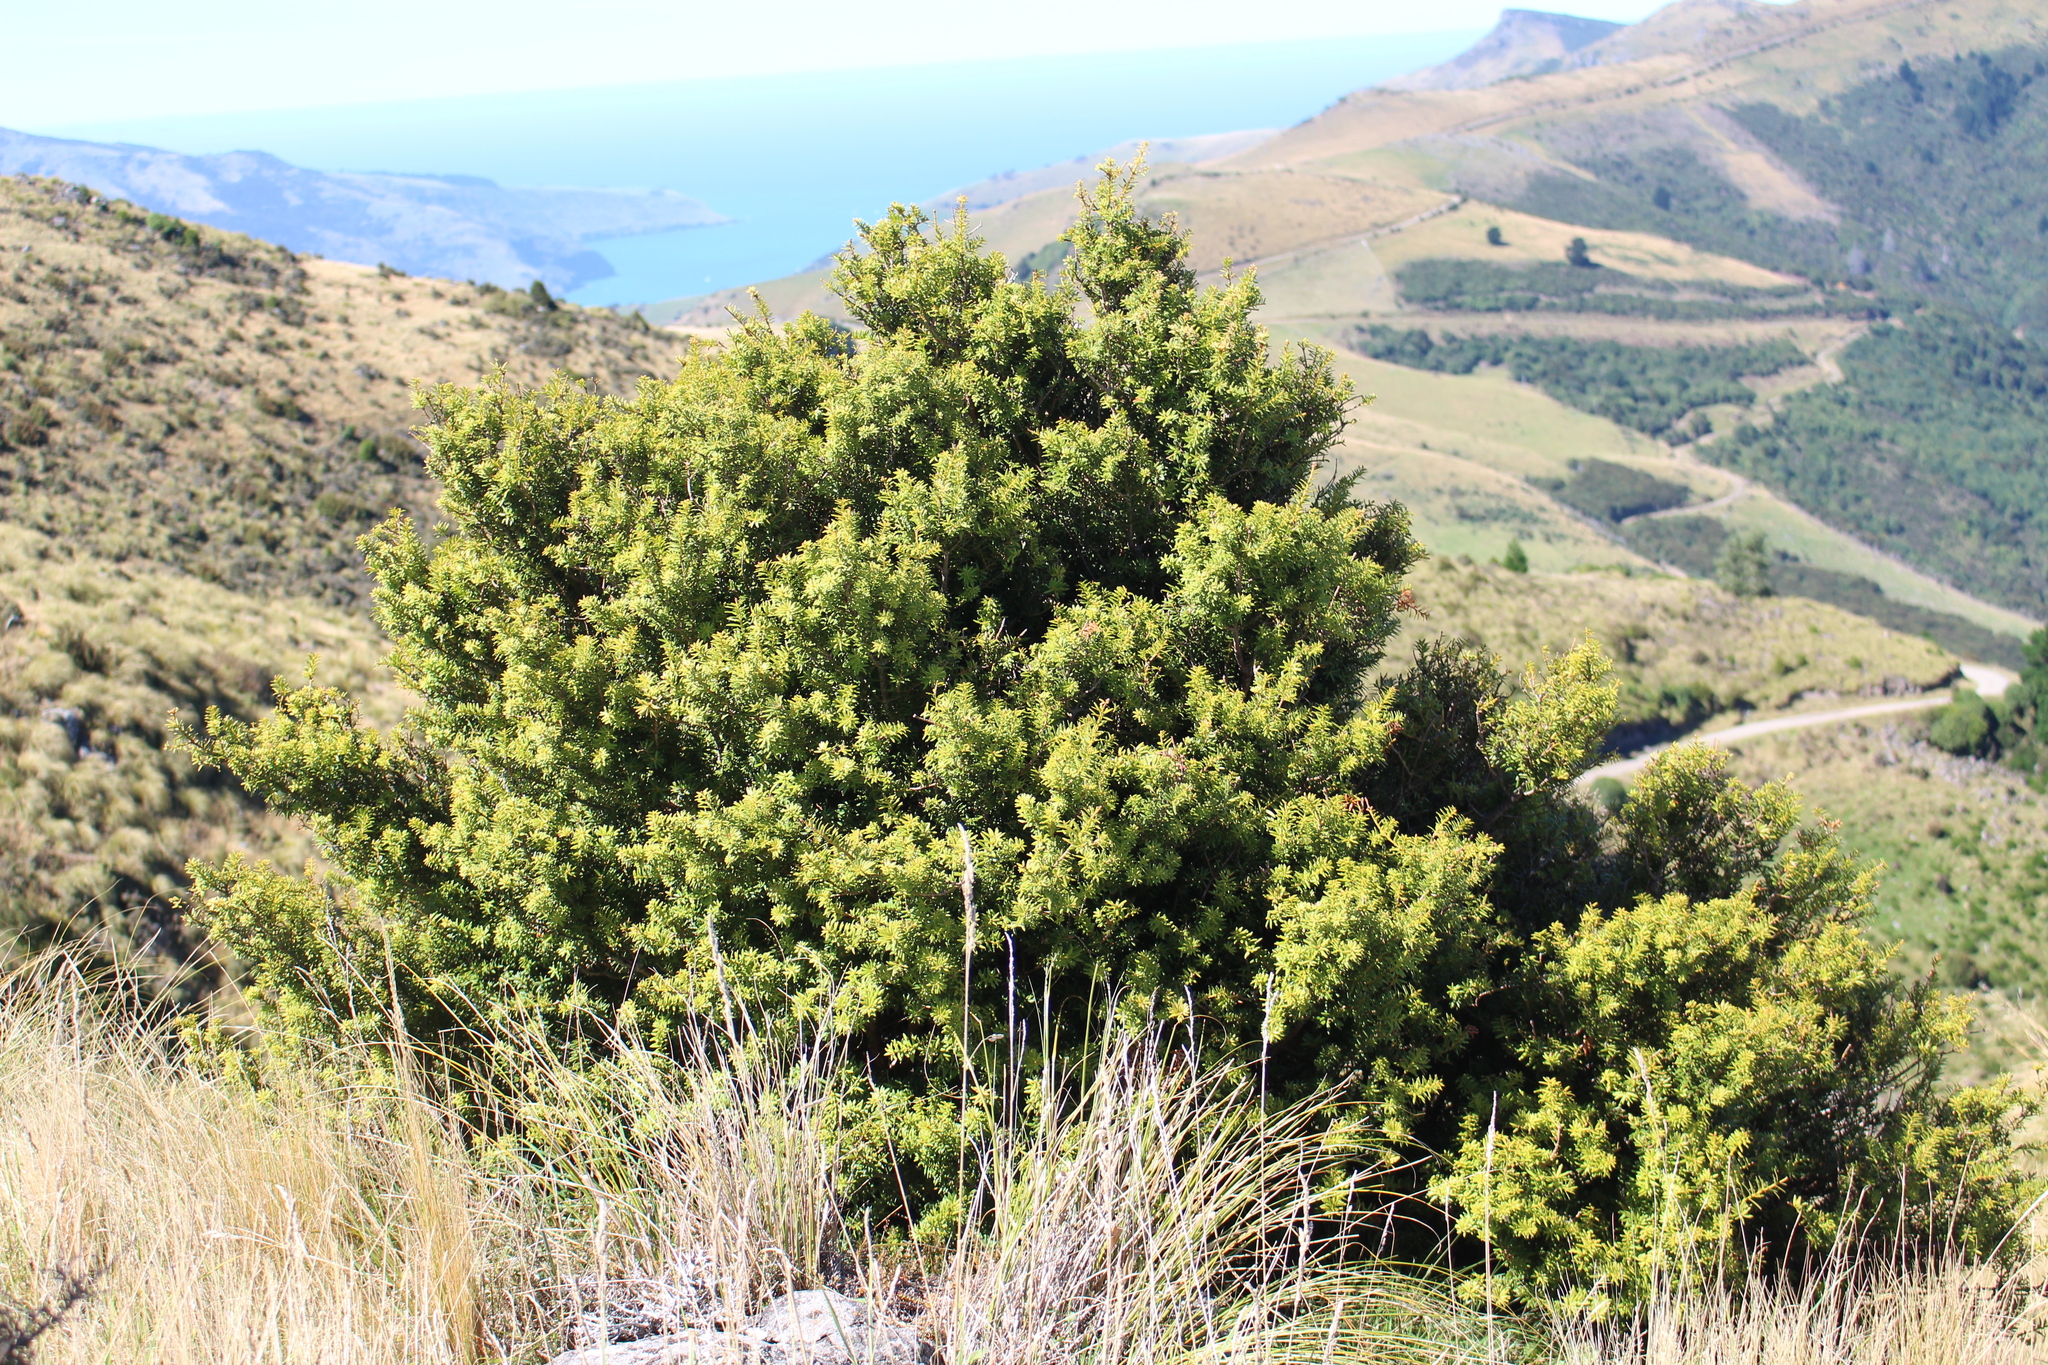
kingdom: Plantae
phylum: Tracheophyta
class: Pinopsida
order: Pinales
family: Podocarpaceae
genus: Podocarpus
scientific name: Podocarpus laetus
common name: Hall's totara
